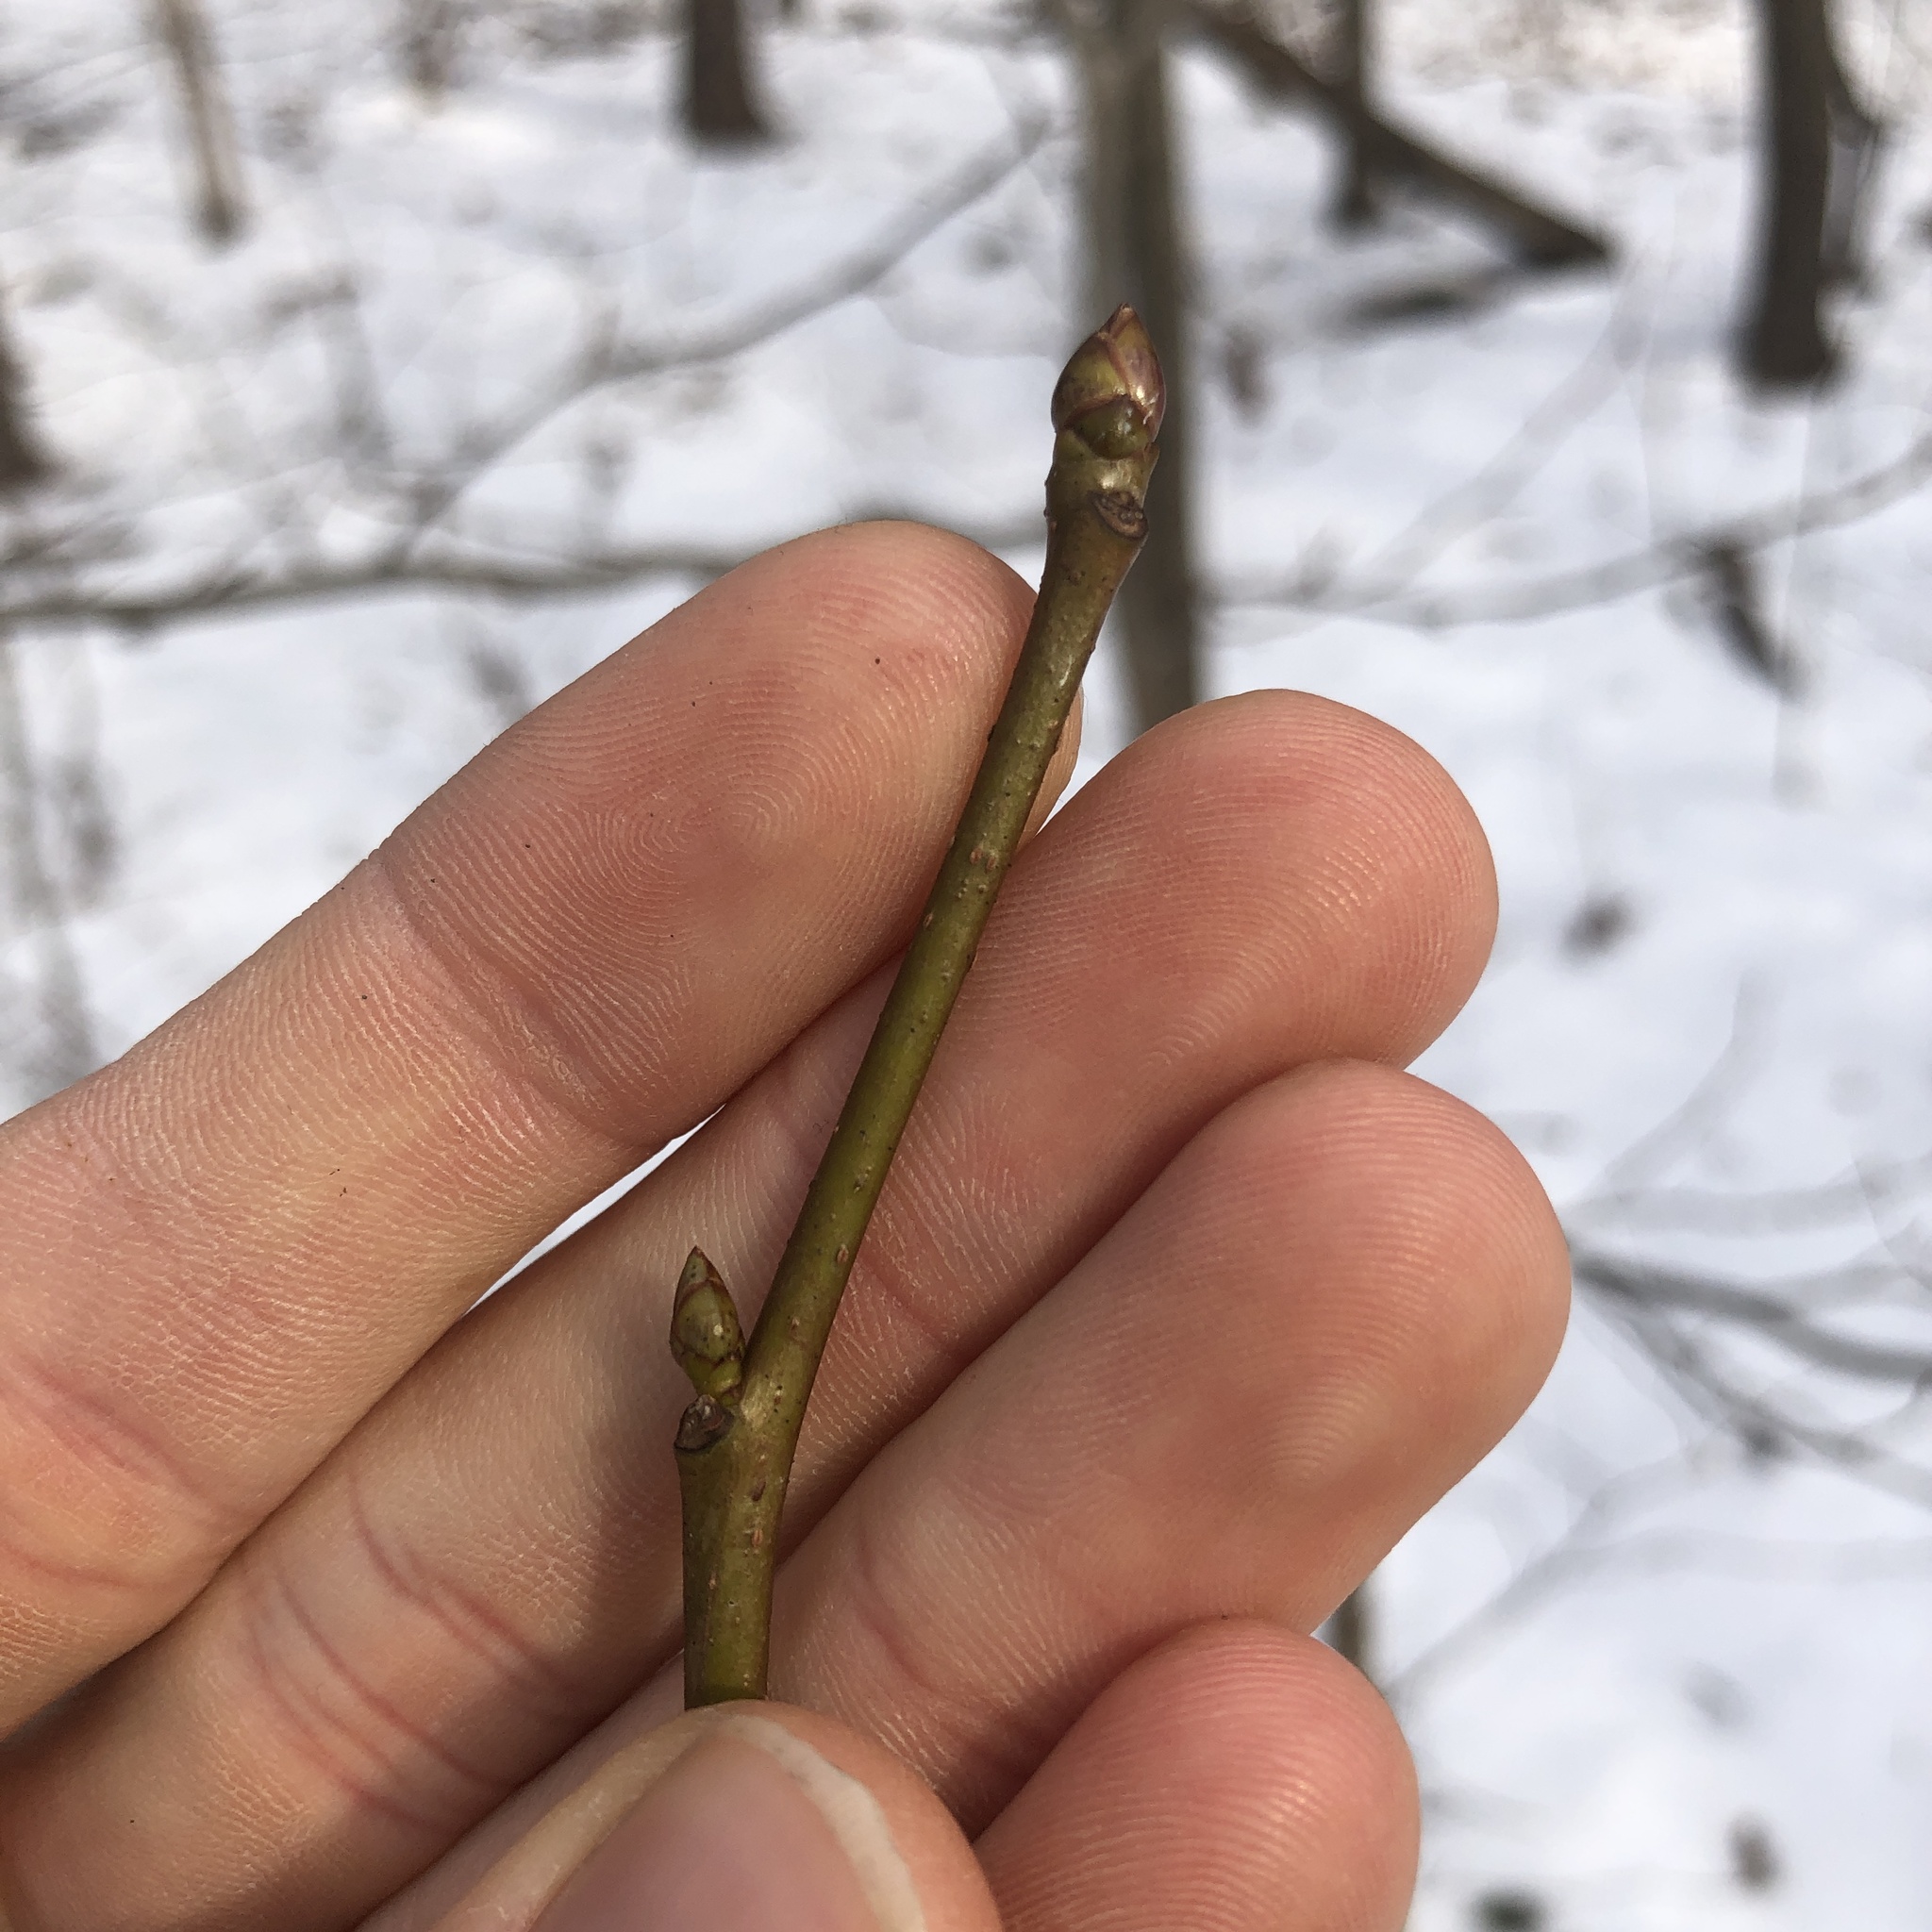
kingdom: Plantae
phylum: Tracheophyta
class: Magnoliopsida
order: Saxifragales
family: Altingiaceae
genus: Liquidambar
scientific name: Liquidambar styraciflua
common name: Sweet gum
